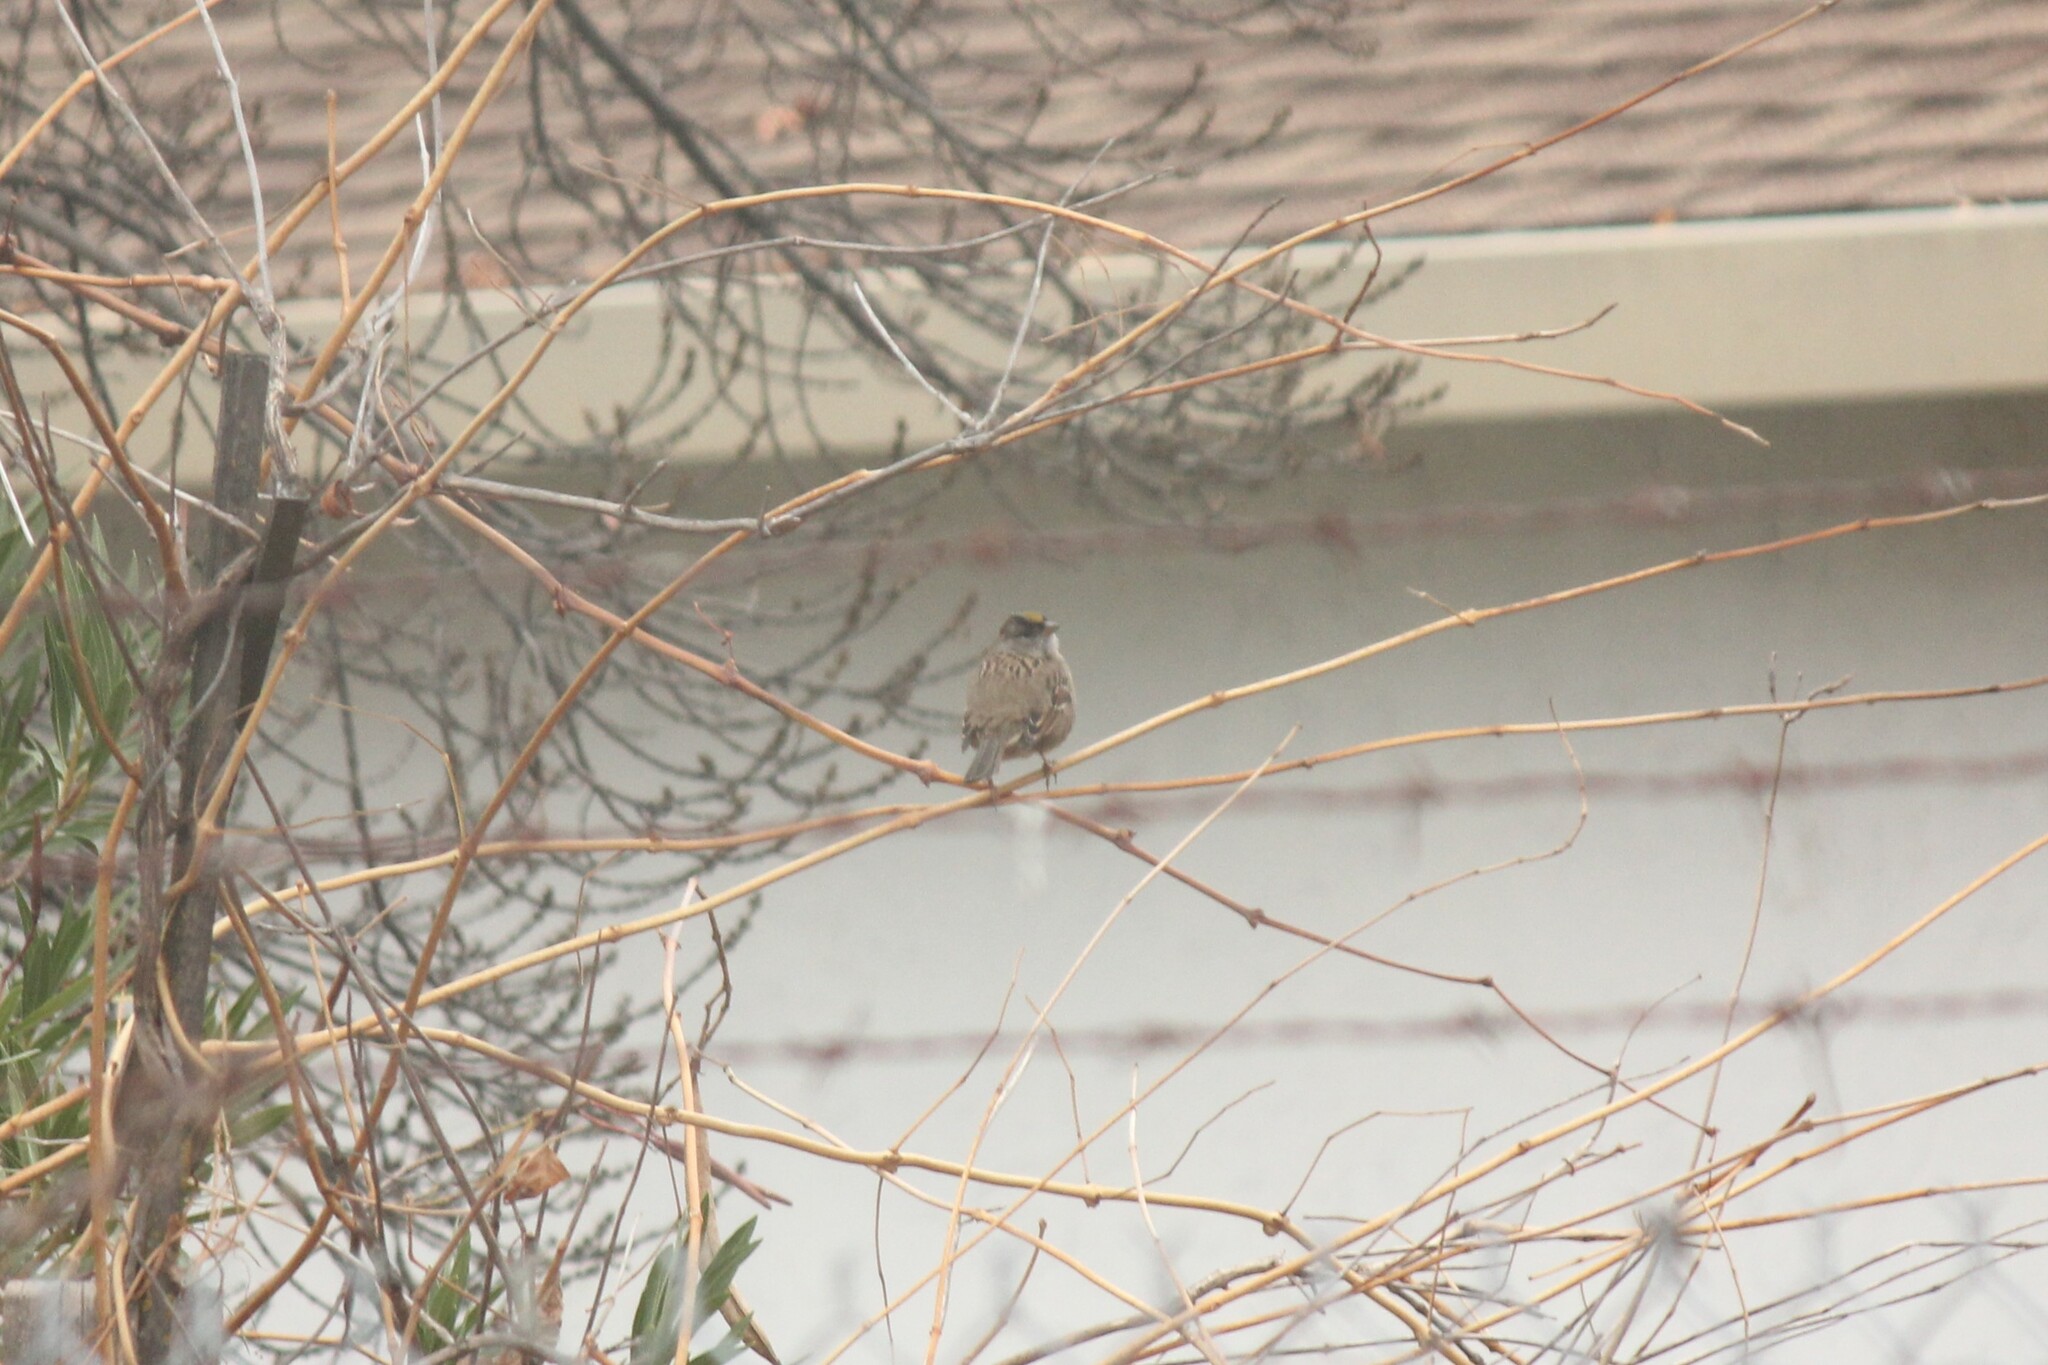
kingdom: Animalia
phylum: Chordata
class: Aves
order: Passeriformes
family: Passerellidae
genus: Zonotrichia
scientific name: Zonotrichia atricapilla
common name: Golden-crowned sparrow
